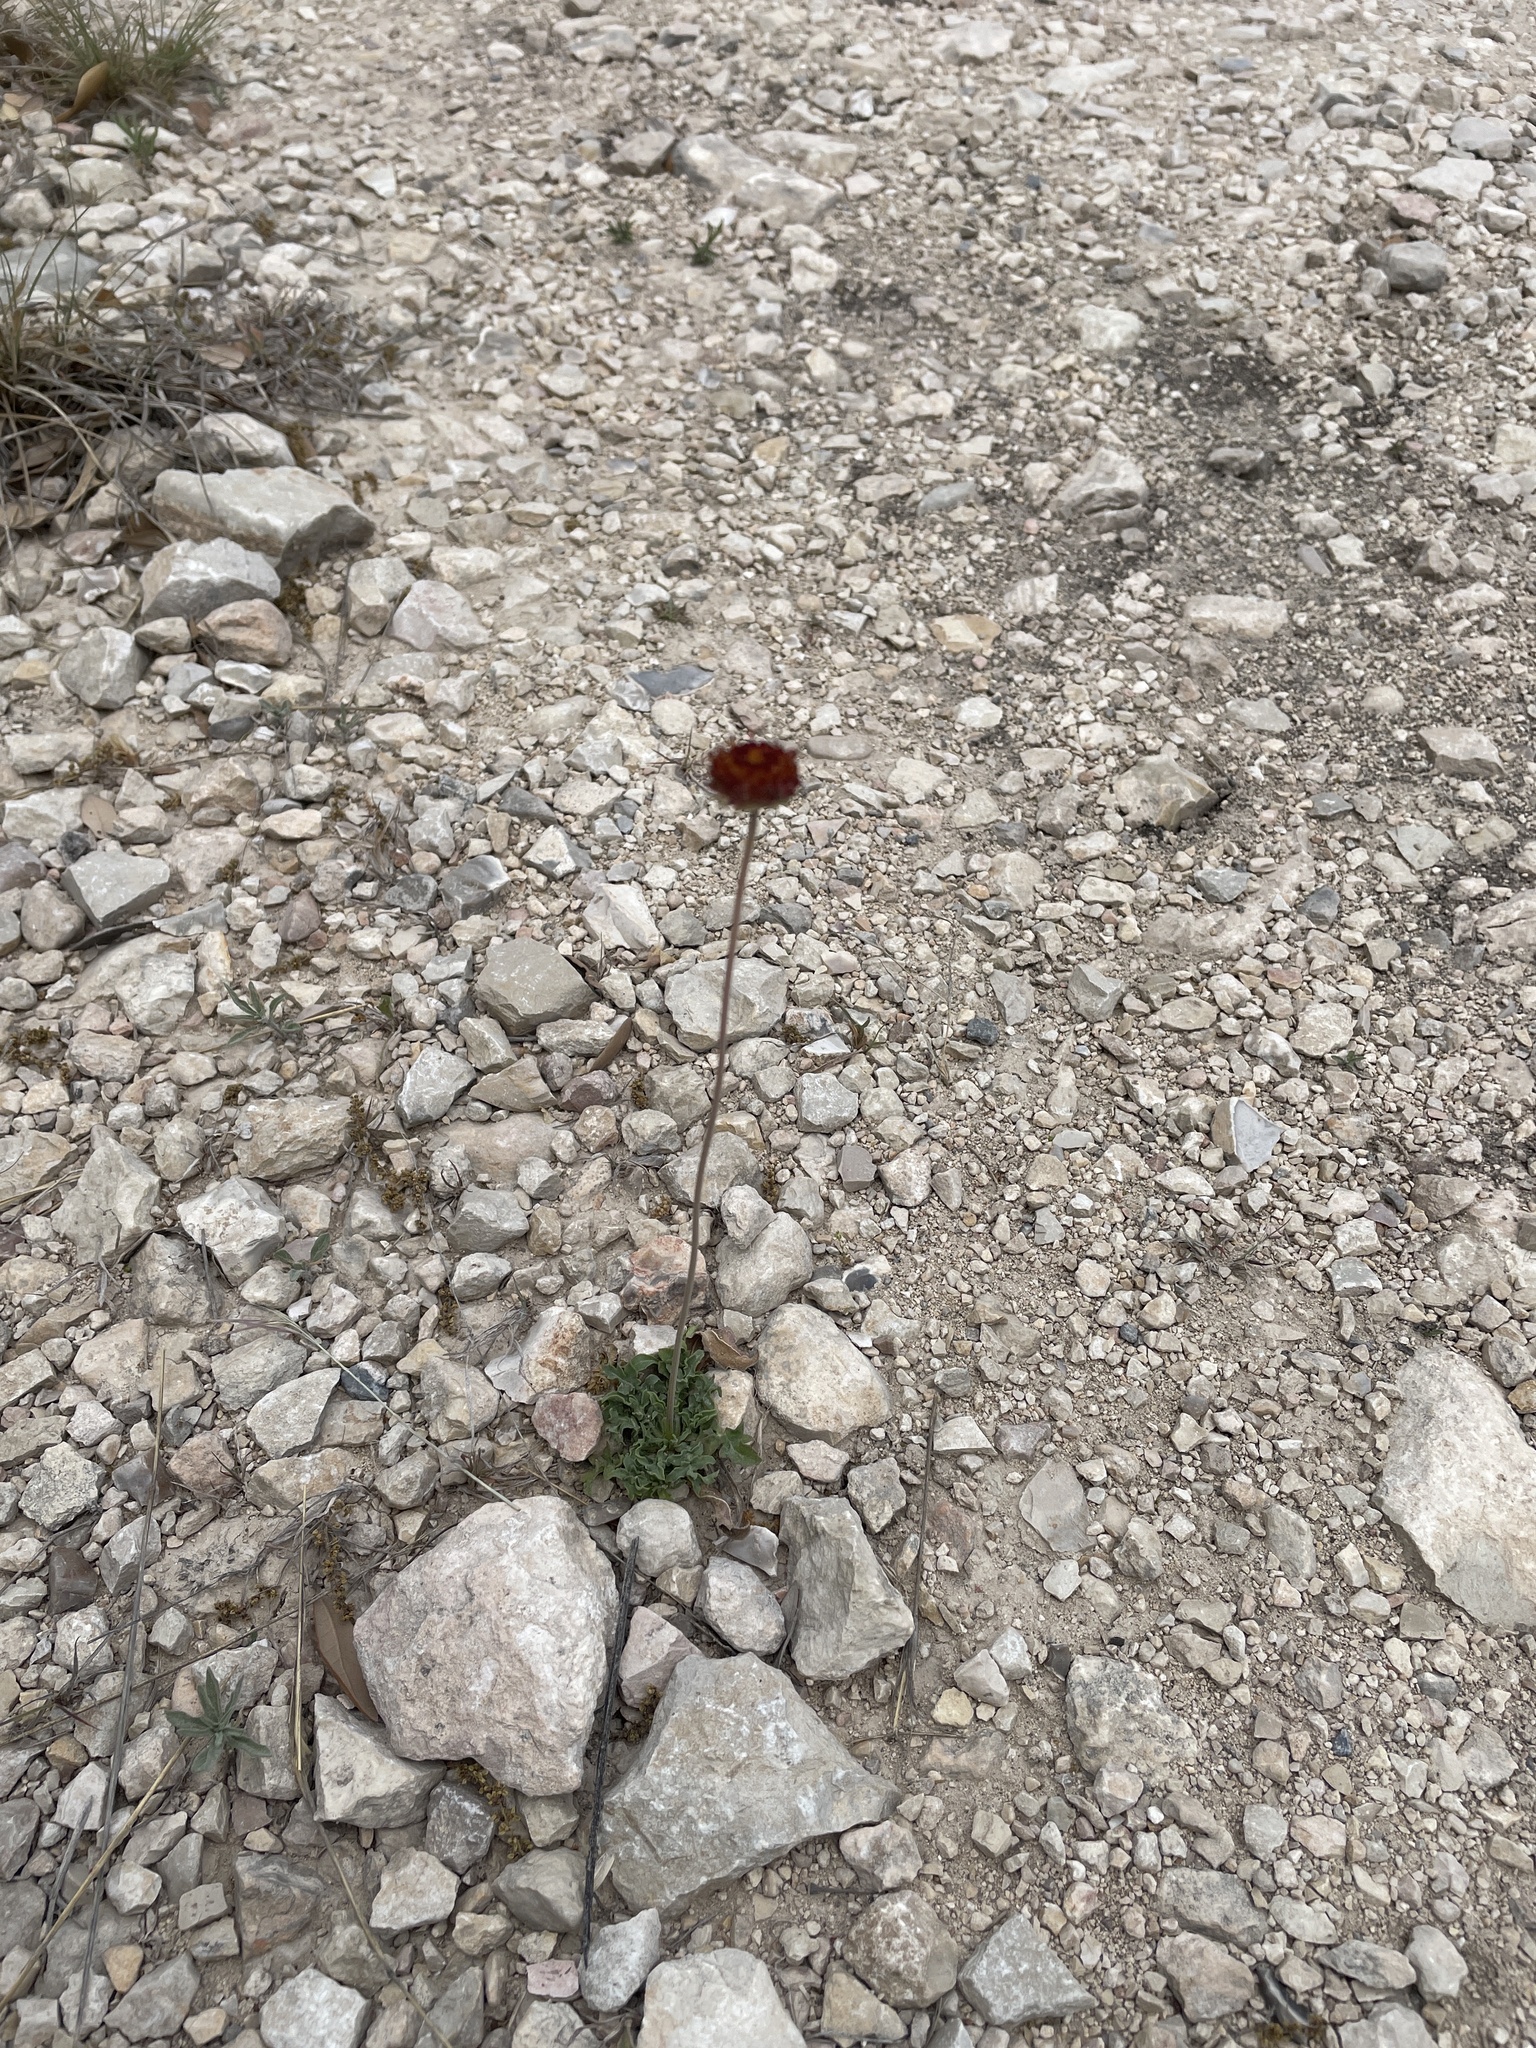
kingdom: Plantae
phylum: Tracheophyta
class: Magnoliopsida
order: Asterales
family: Asteraceae
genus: Gaillardia
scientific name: Gaillardia suavis
